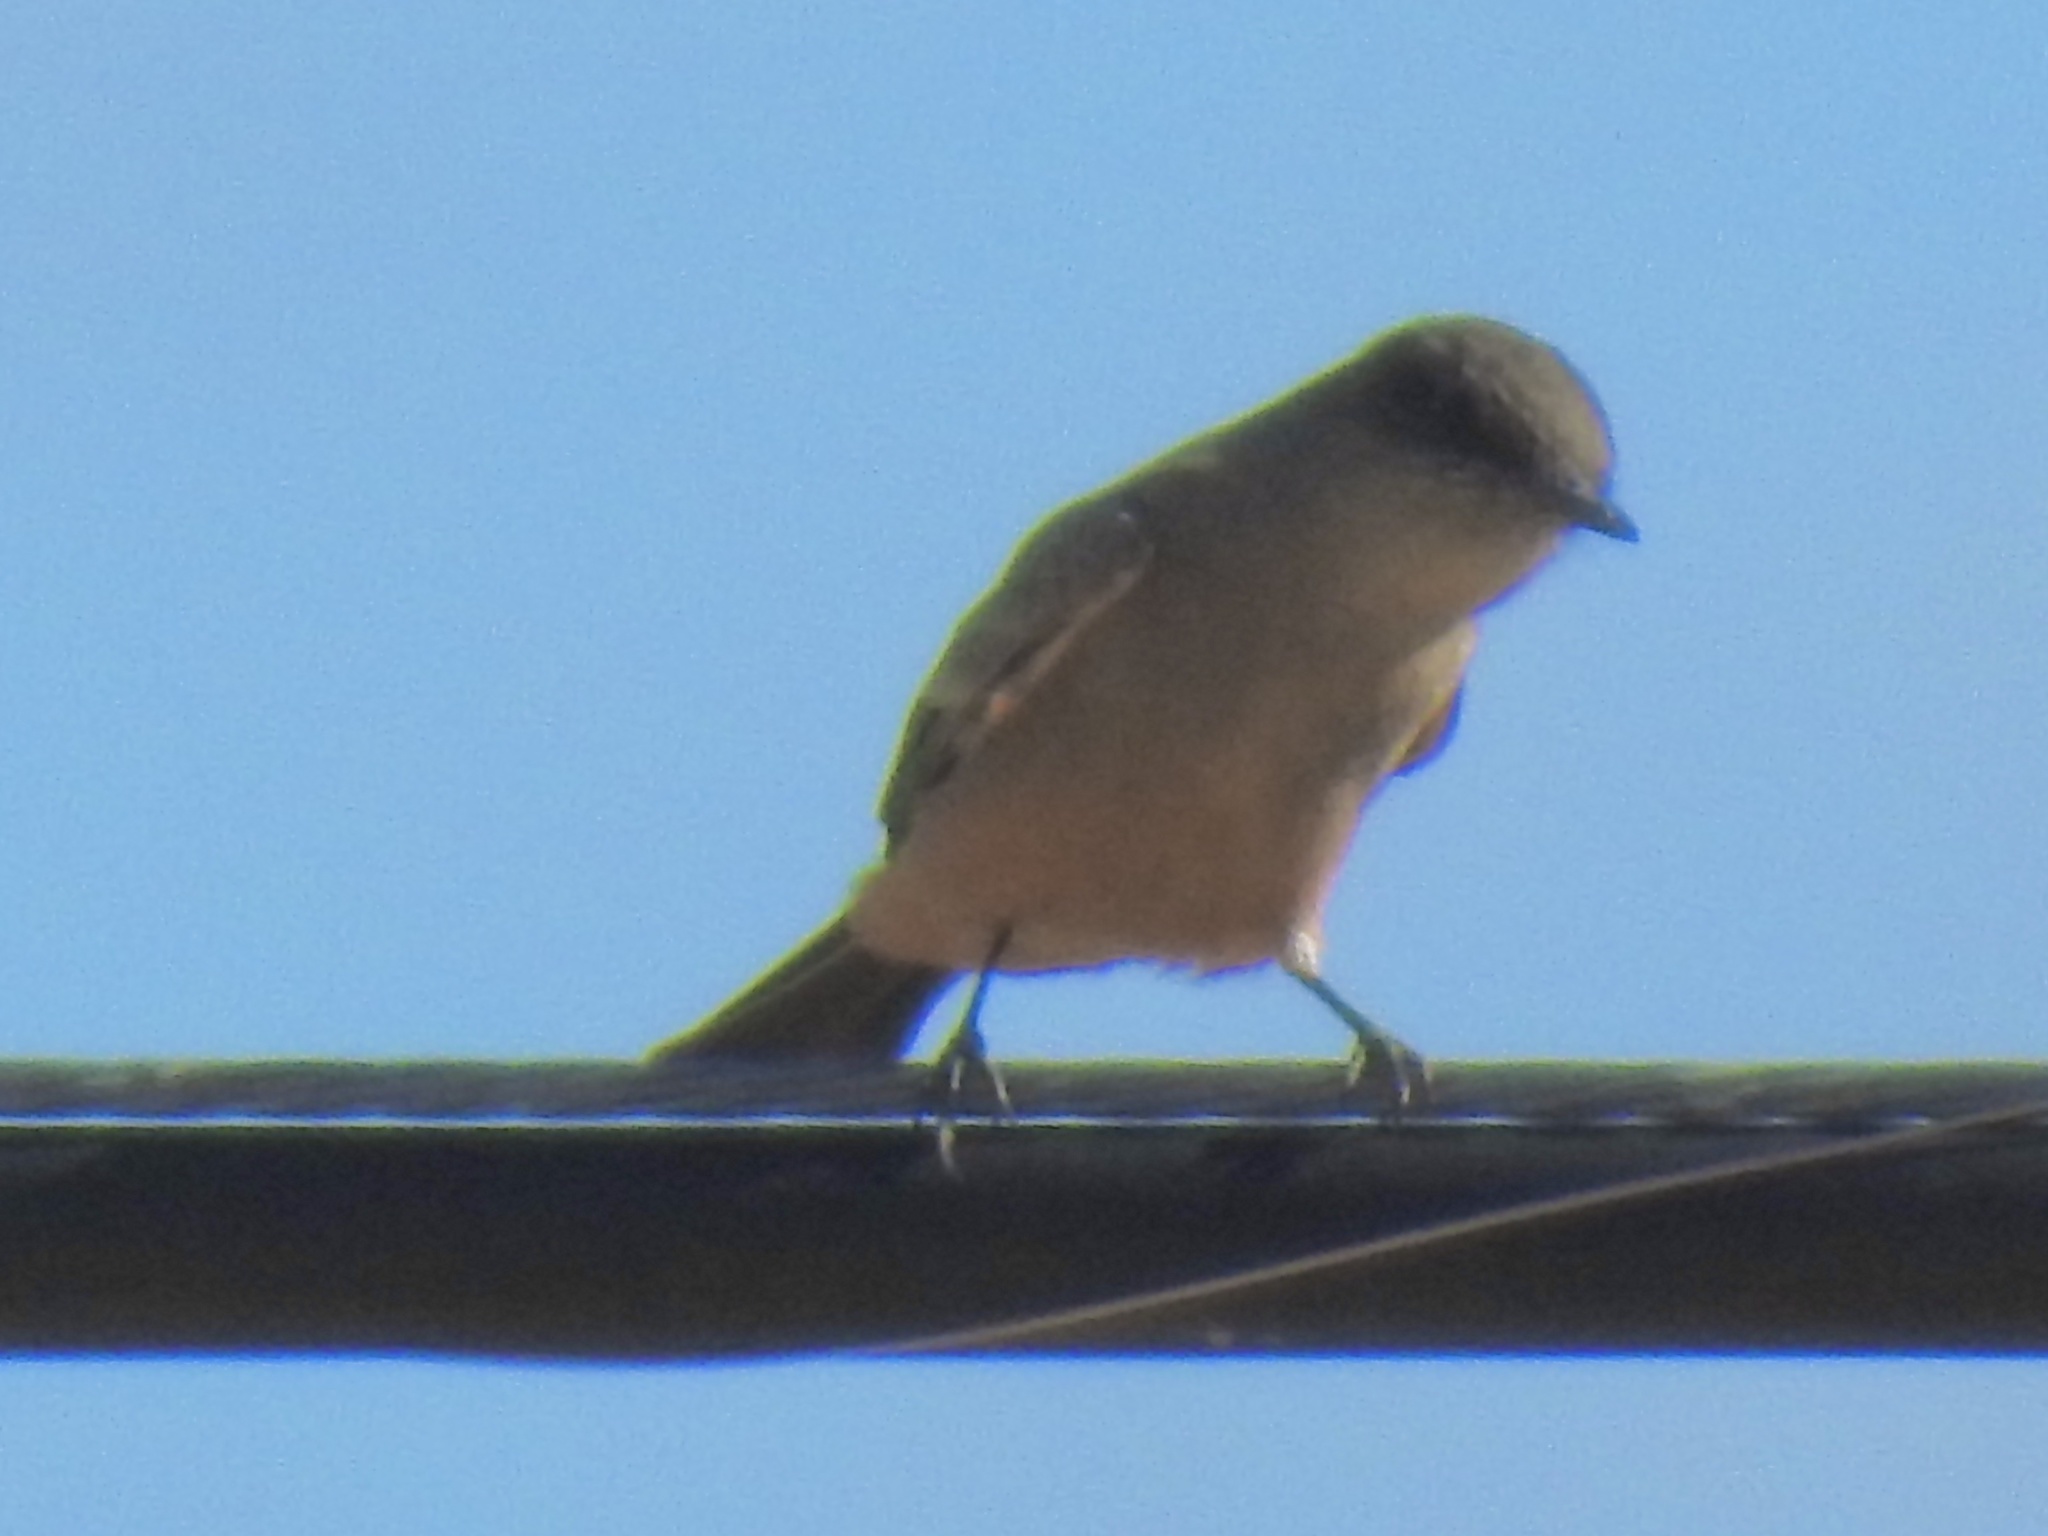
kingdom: Animalia
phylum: Chordata
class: Aves
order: Passeriformes
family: Tyrannidae
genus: Sayornis
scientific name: Sayornis saya
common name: Say's phoebe
